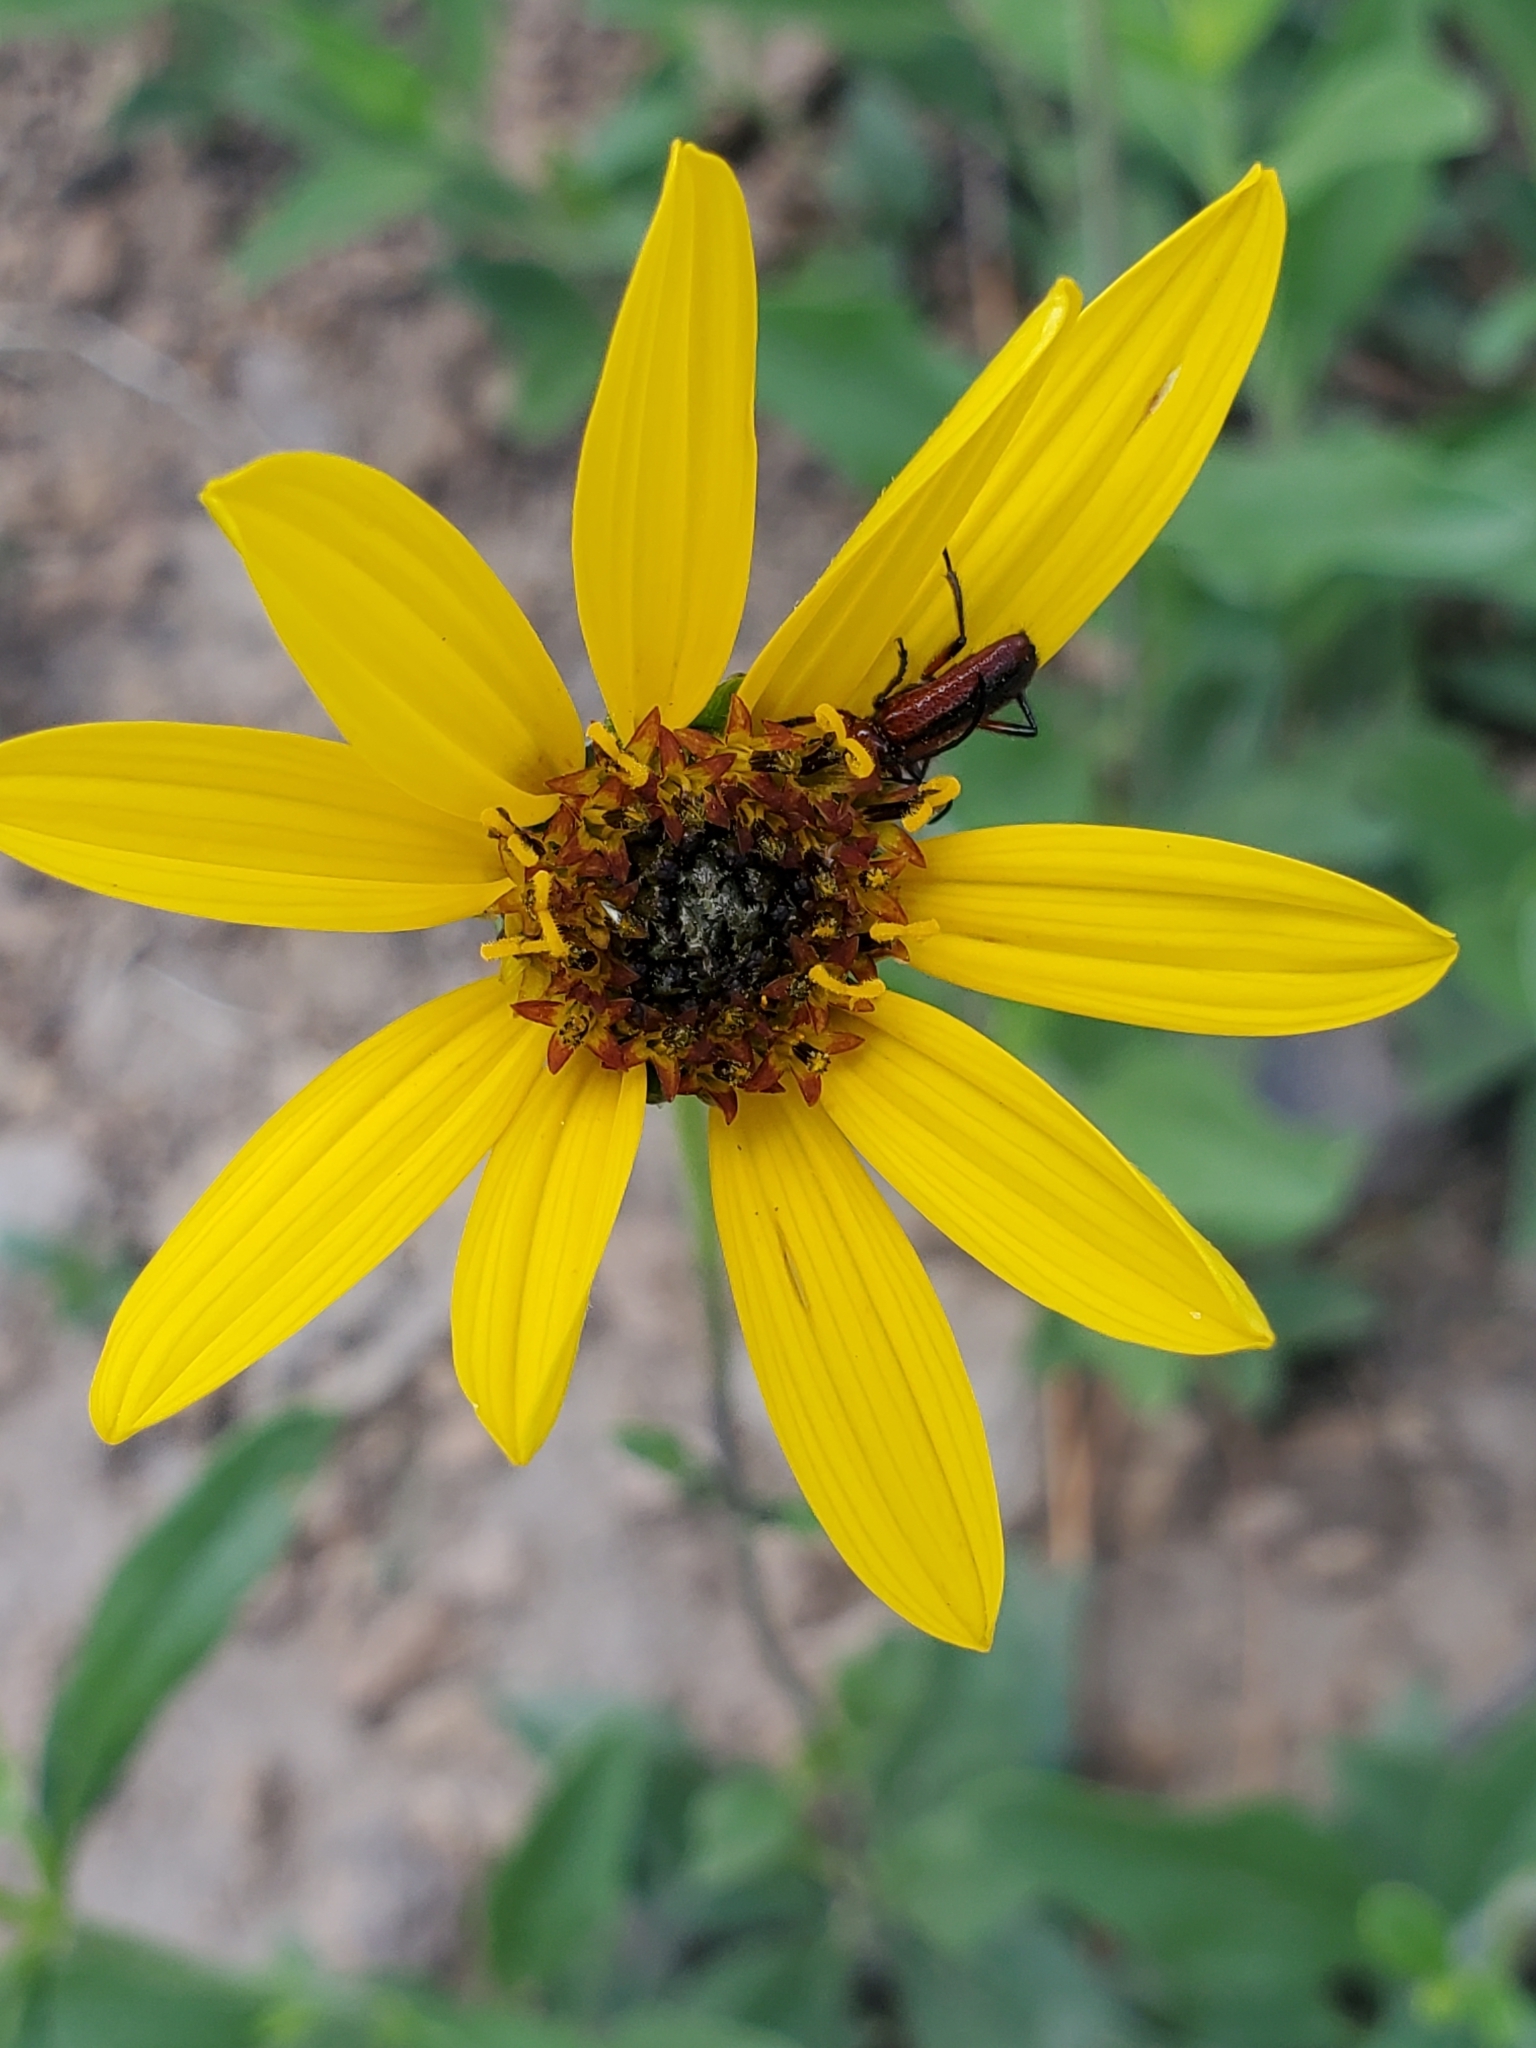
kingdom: Plantae
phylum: Tracheophyta
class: Magnoliopsida
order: Asterales
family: Asteraceae
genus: Helianthus
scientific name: Helianthus pauciflorus
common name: Stiff sunflower
